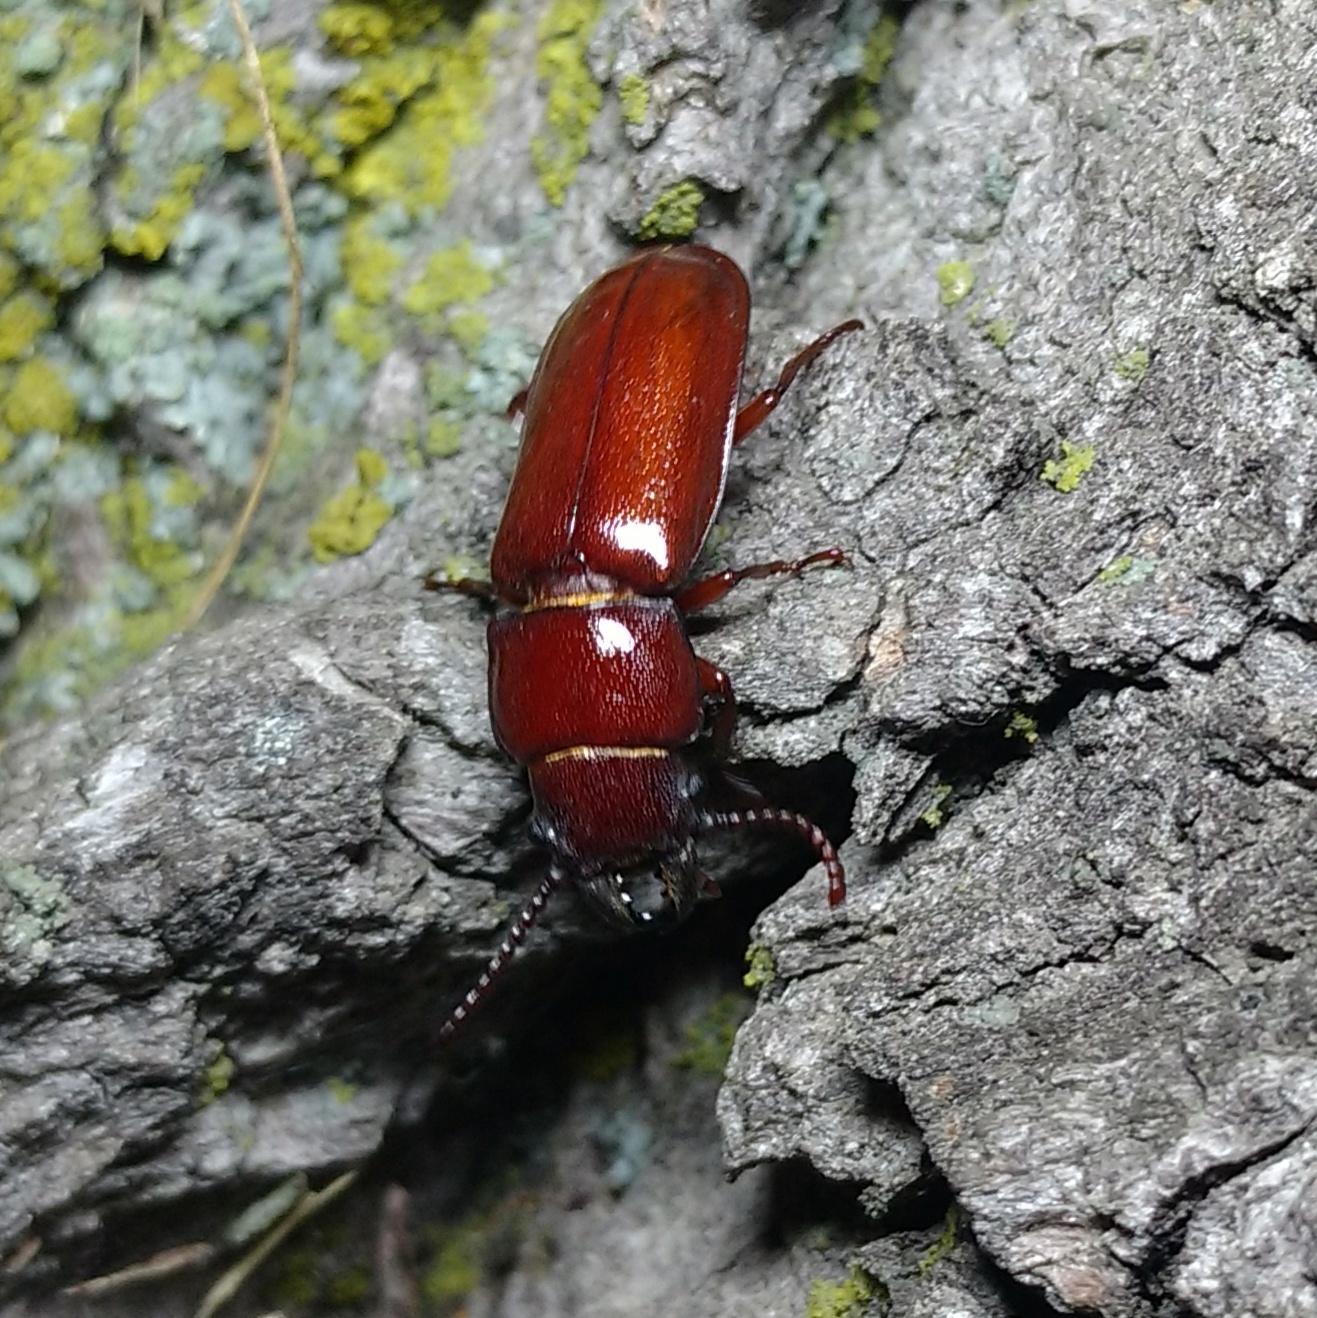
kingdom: Animalia
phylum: Arthropoda
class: Insecta
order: Coleoptera
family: Cerambycidae
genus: Neandra
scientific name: Neandra brunnea
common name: Pole borer
